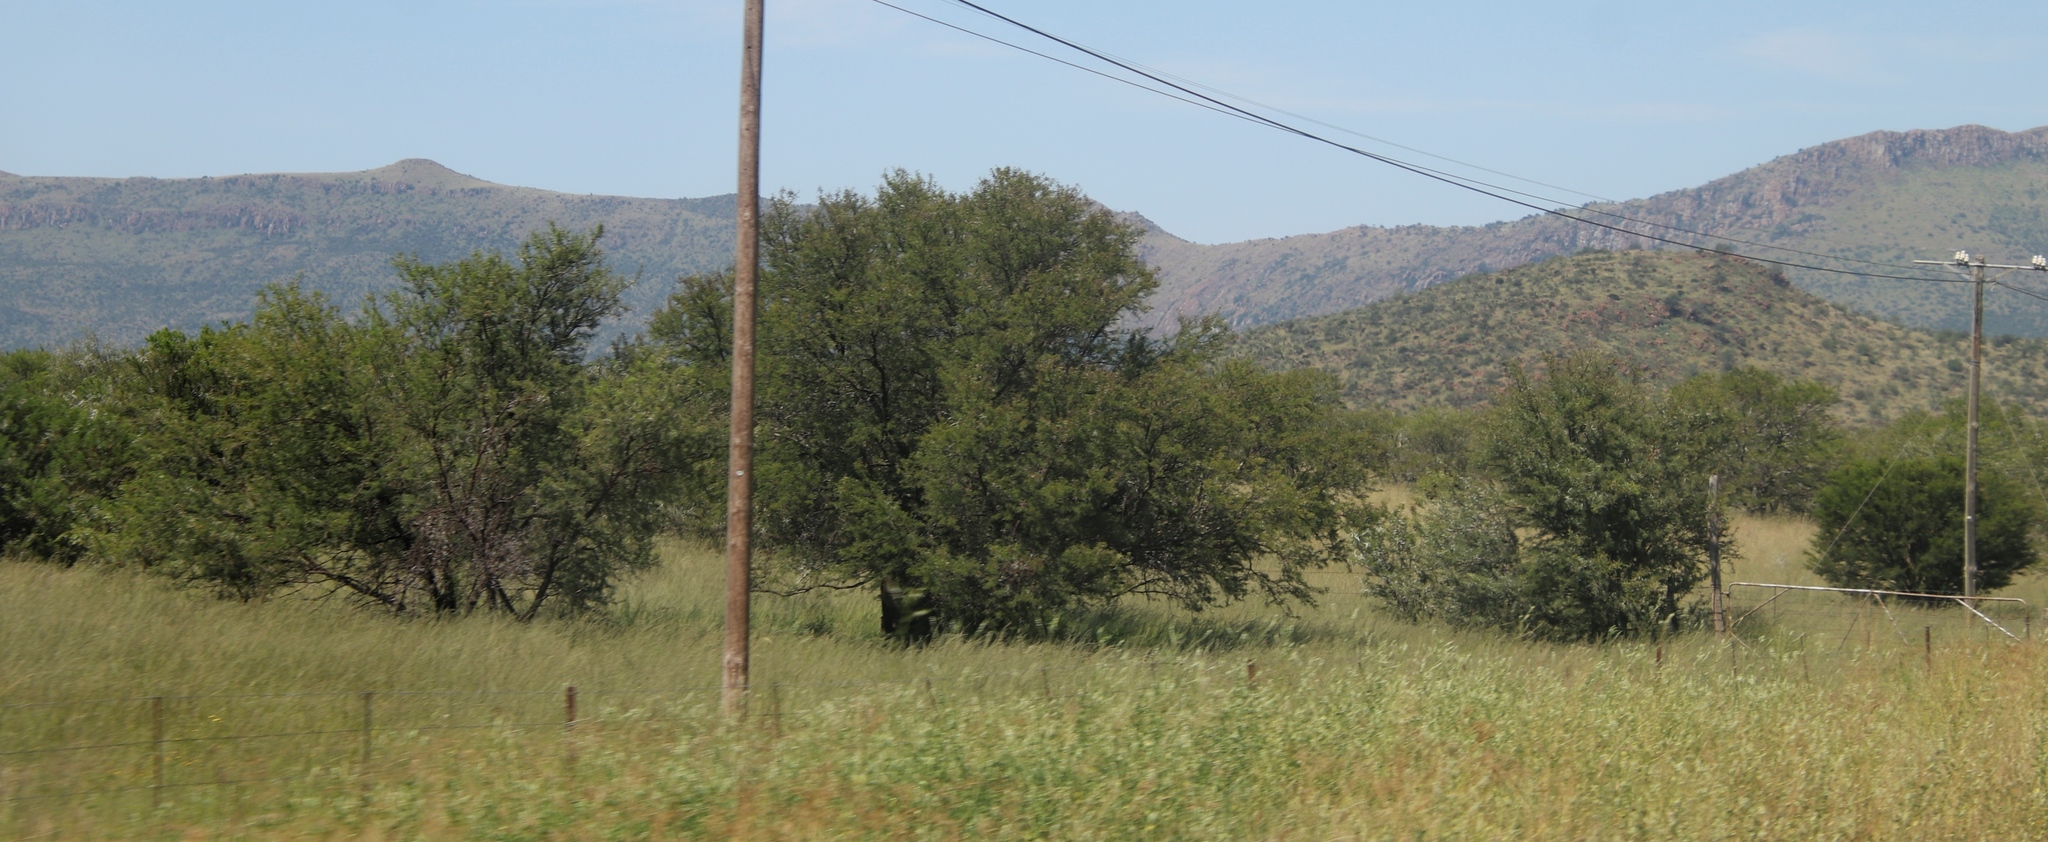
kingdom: Plantae
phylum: Tracheophyta
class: Magnoliopsida
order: Fabales
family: Fabaceae
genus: Vachellia
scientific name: Vachellia karroo
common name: Sweet thorn
